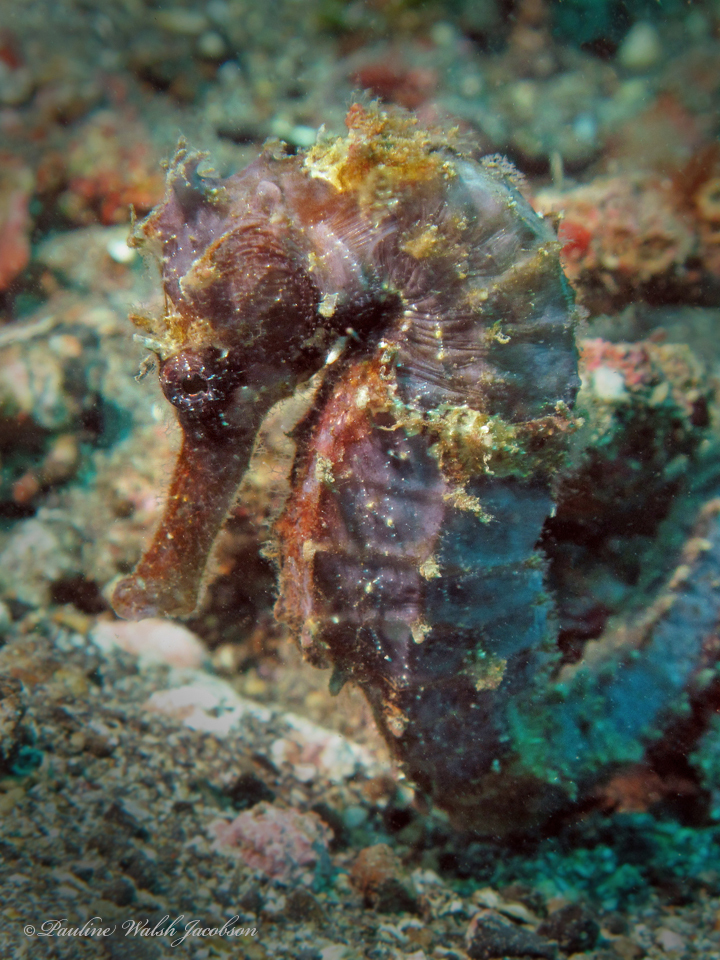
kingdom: Animalia
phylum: Chordata
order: Syngnathiformes
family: Syngnathidae
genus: Hippocampus
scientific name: Hippocampus spinosissimus
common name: Hedgehog seahorse
